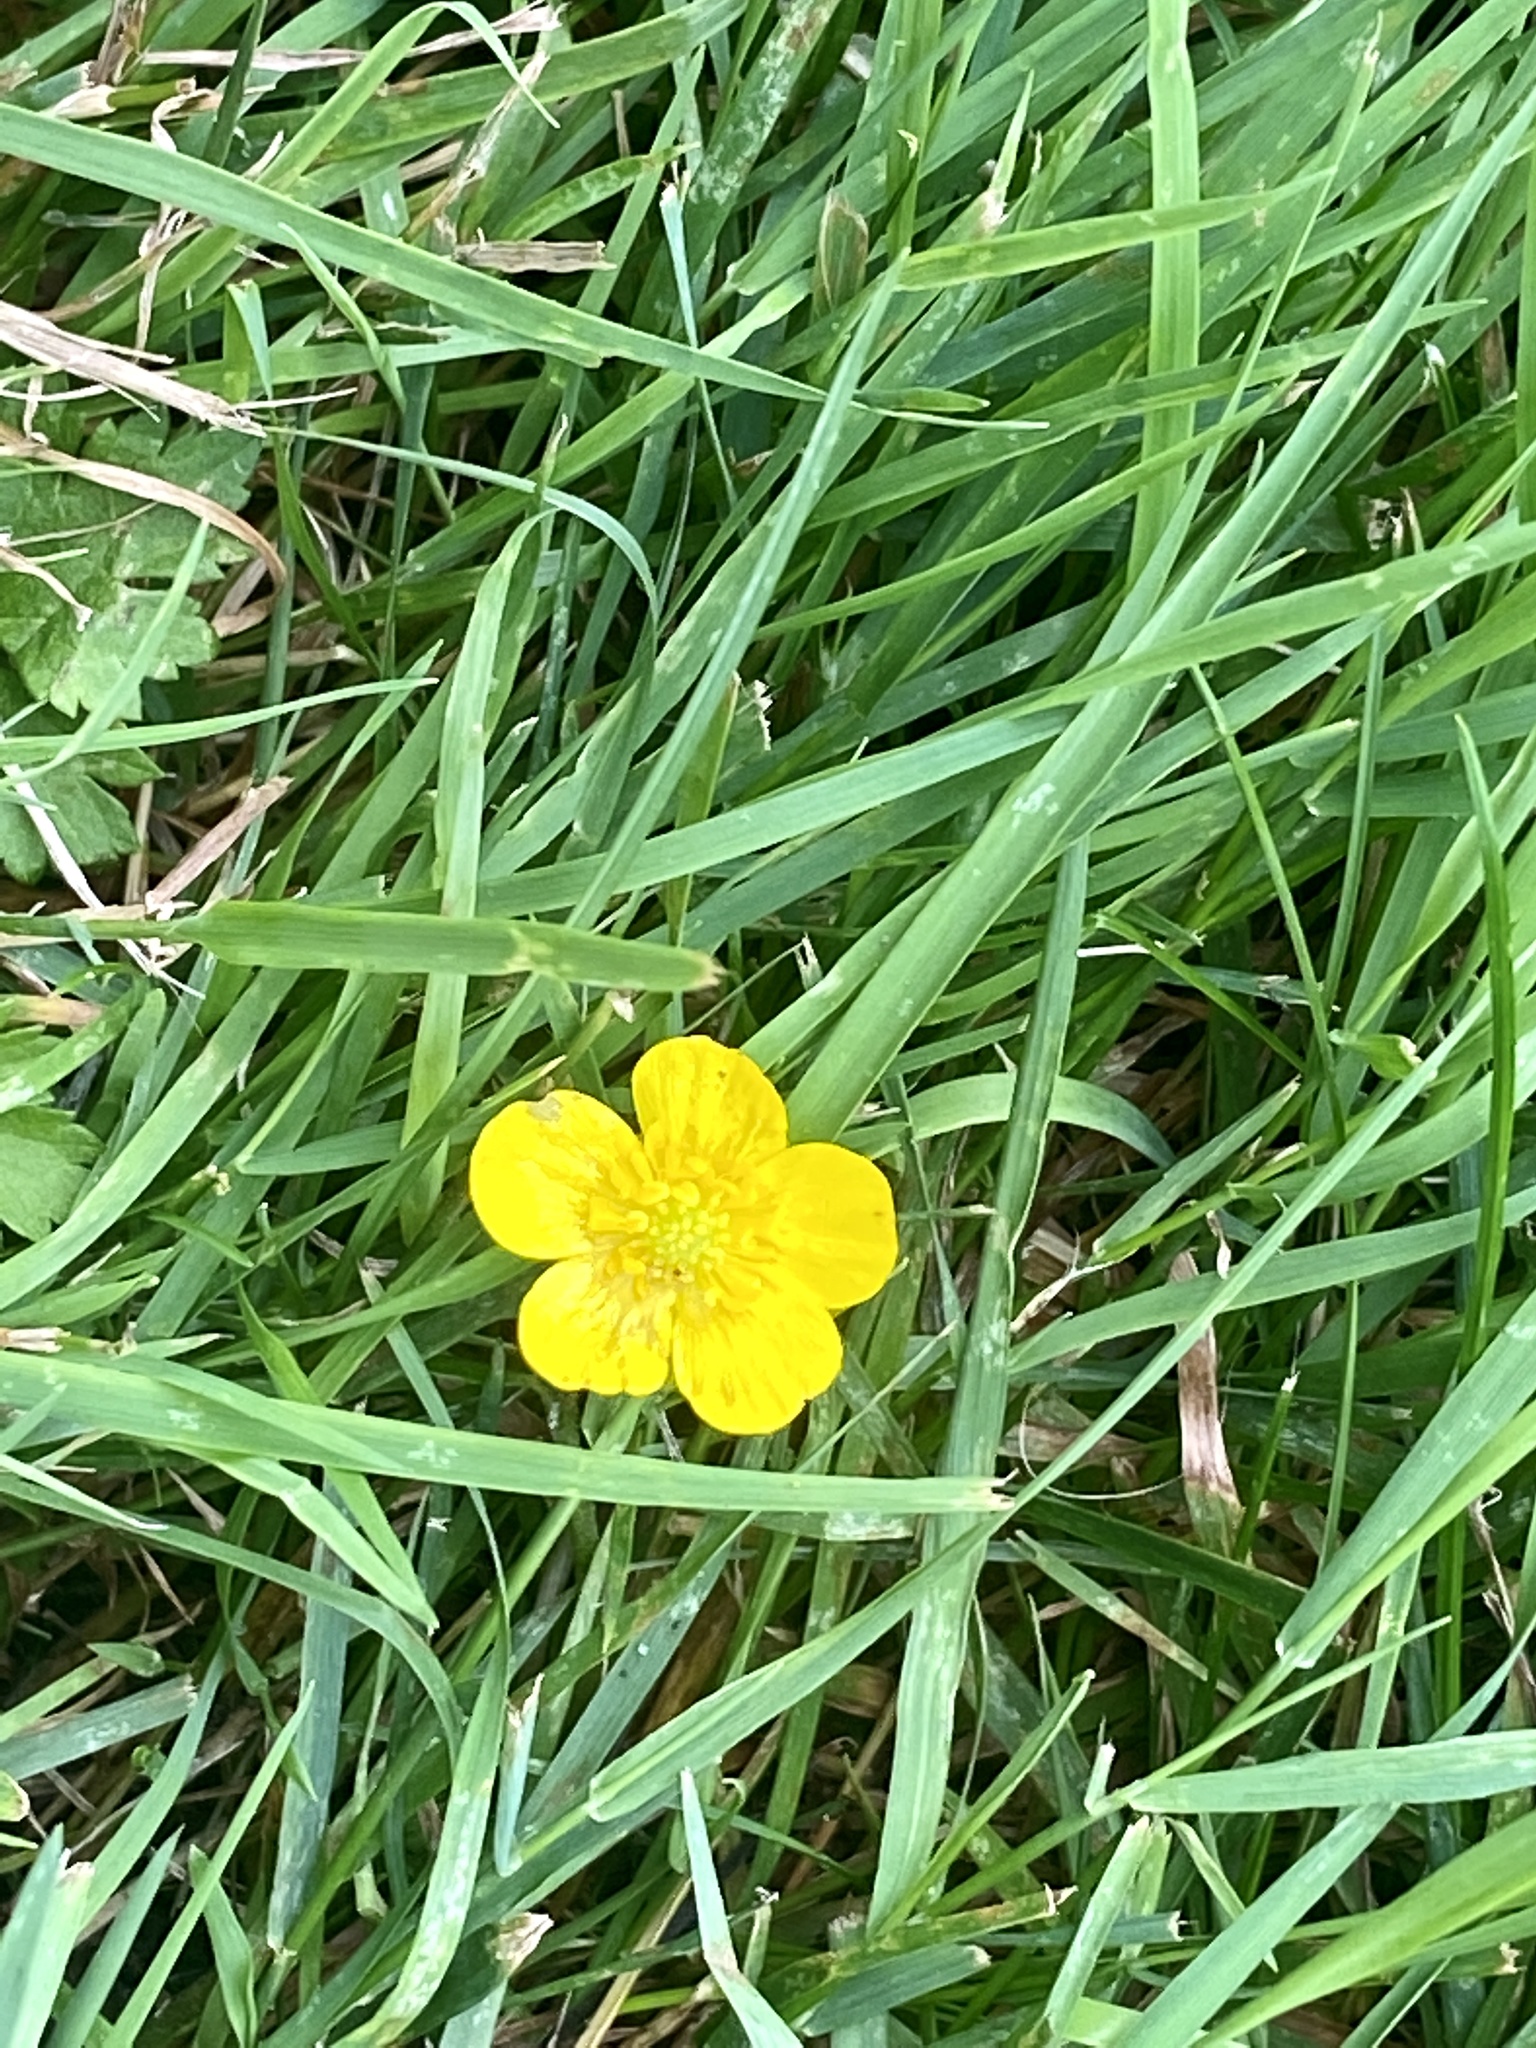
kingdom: Plantae
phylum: Tracheophyta
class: Magnoliopsida
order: Ranunculales
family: Ranunculaceae
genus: Ranunculus
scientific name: Ranunculus repens
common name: Creeping buttercup
